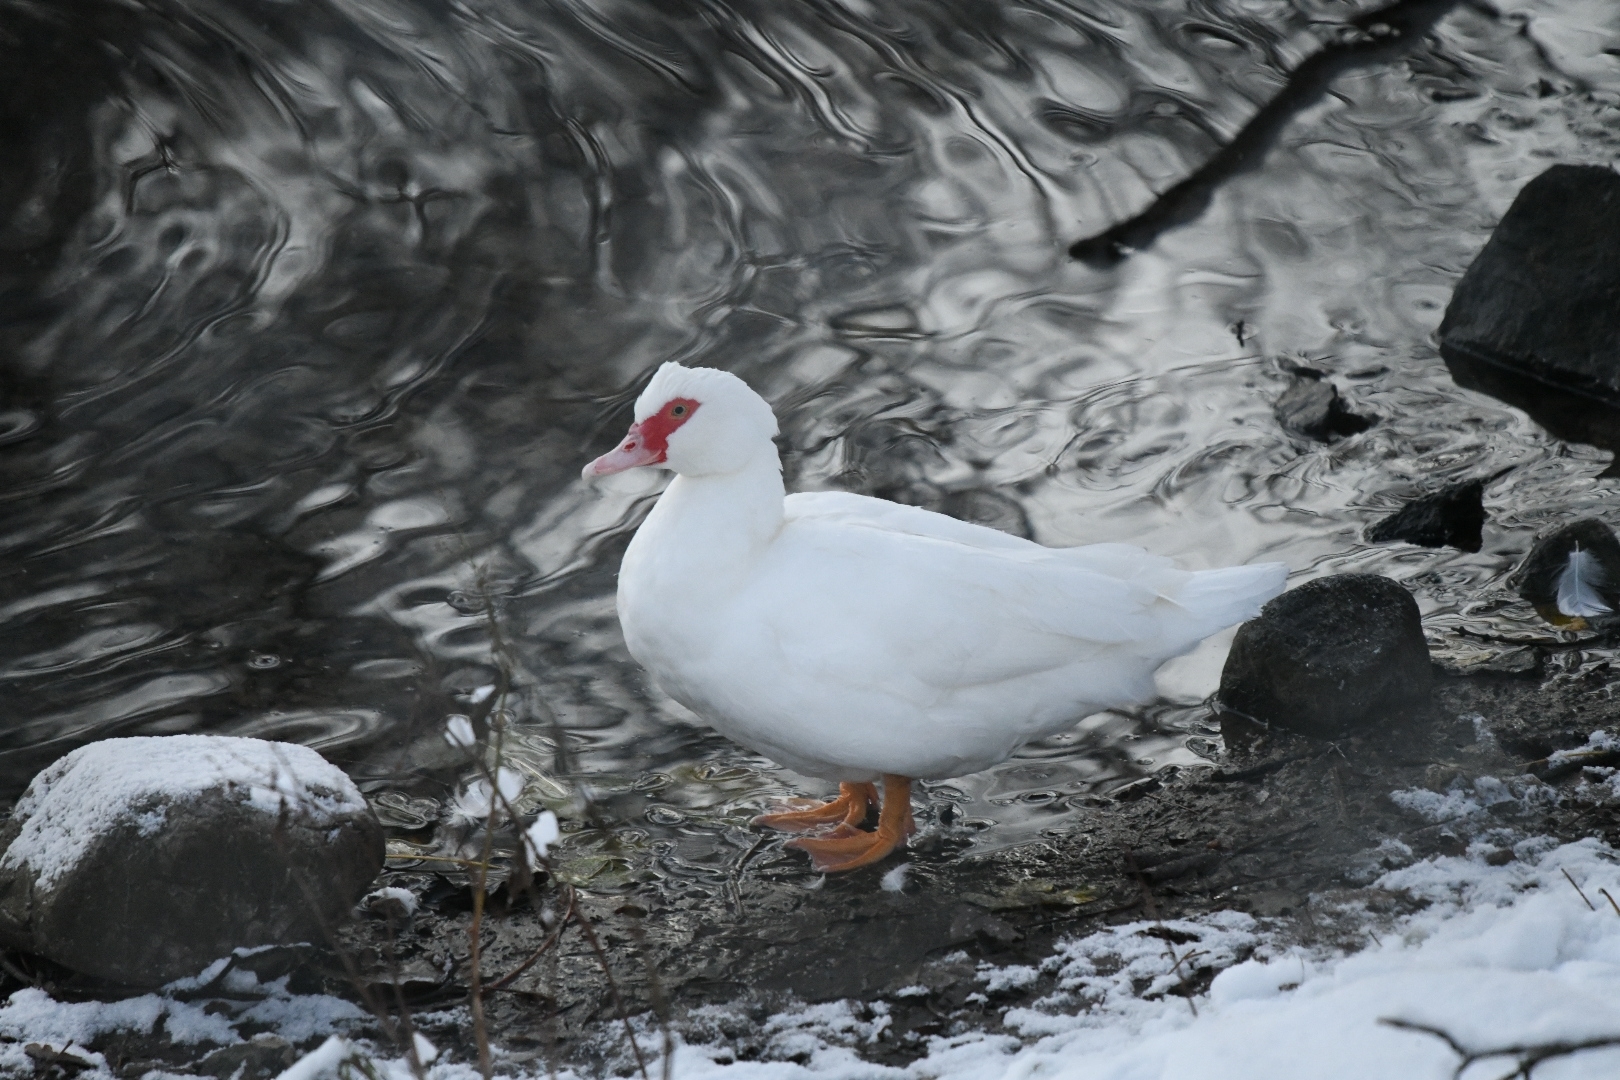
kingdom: Animalia
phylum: Chordata
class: Aves
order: Anseriformes
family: Anatidae
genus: Cairina
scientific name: Cairina moschata
